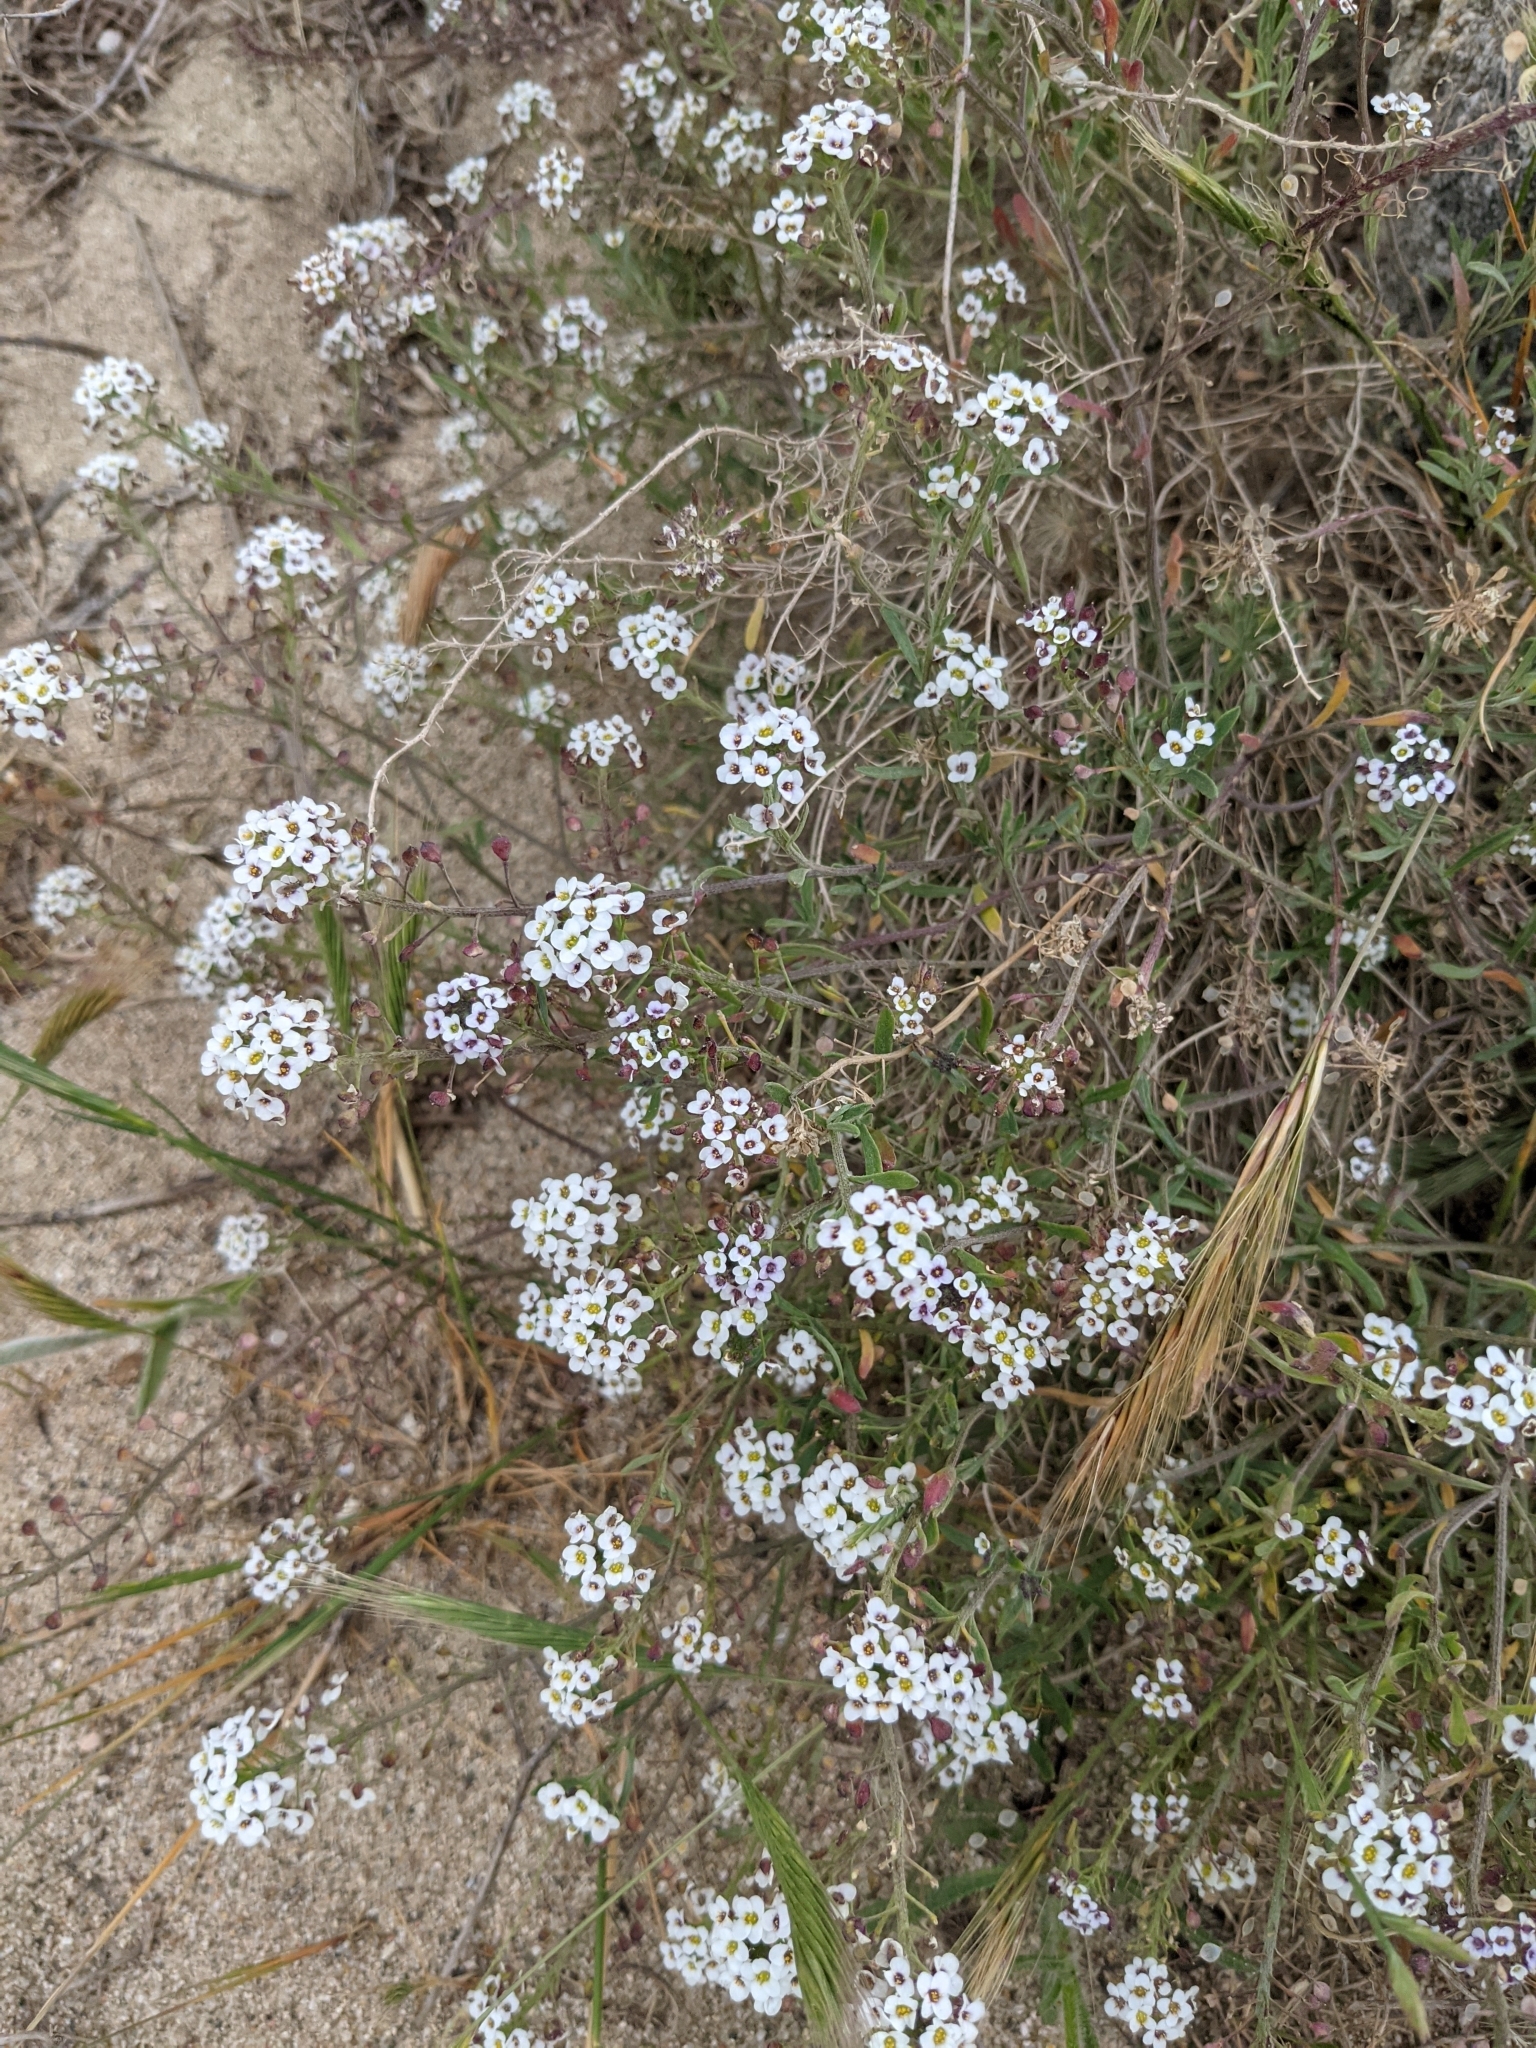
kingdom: Plantae
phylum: Tracheophyta
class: Magnoliopsida
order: Brassicales
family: Brassicaceae
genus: Lobularia
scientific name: Lobularia maritima
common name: Sweet alison
